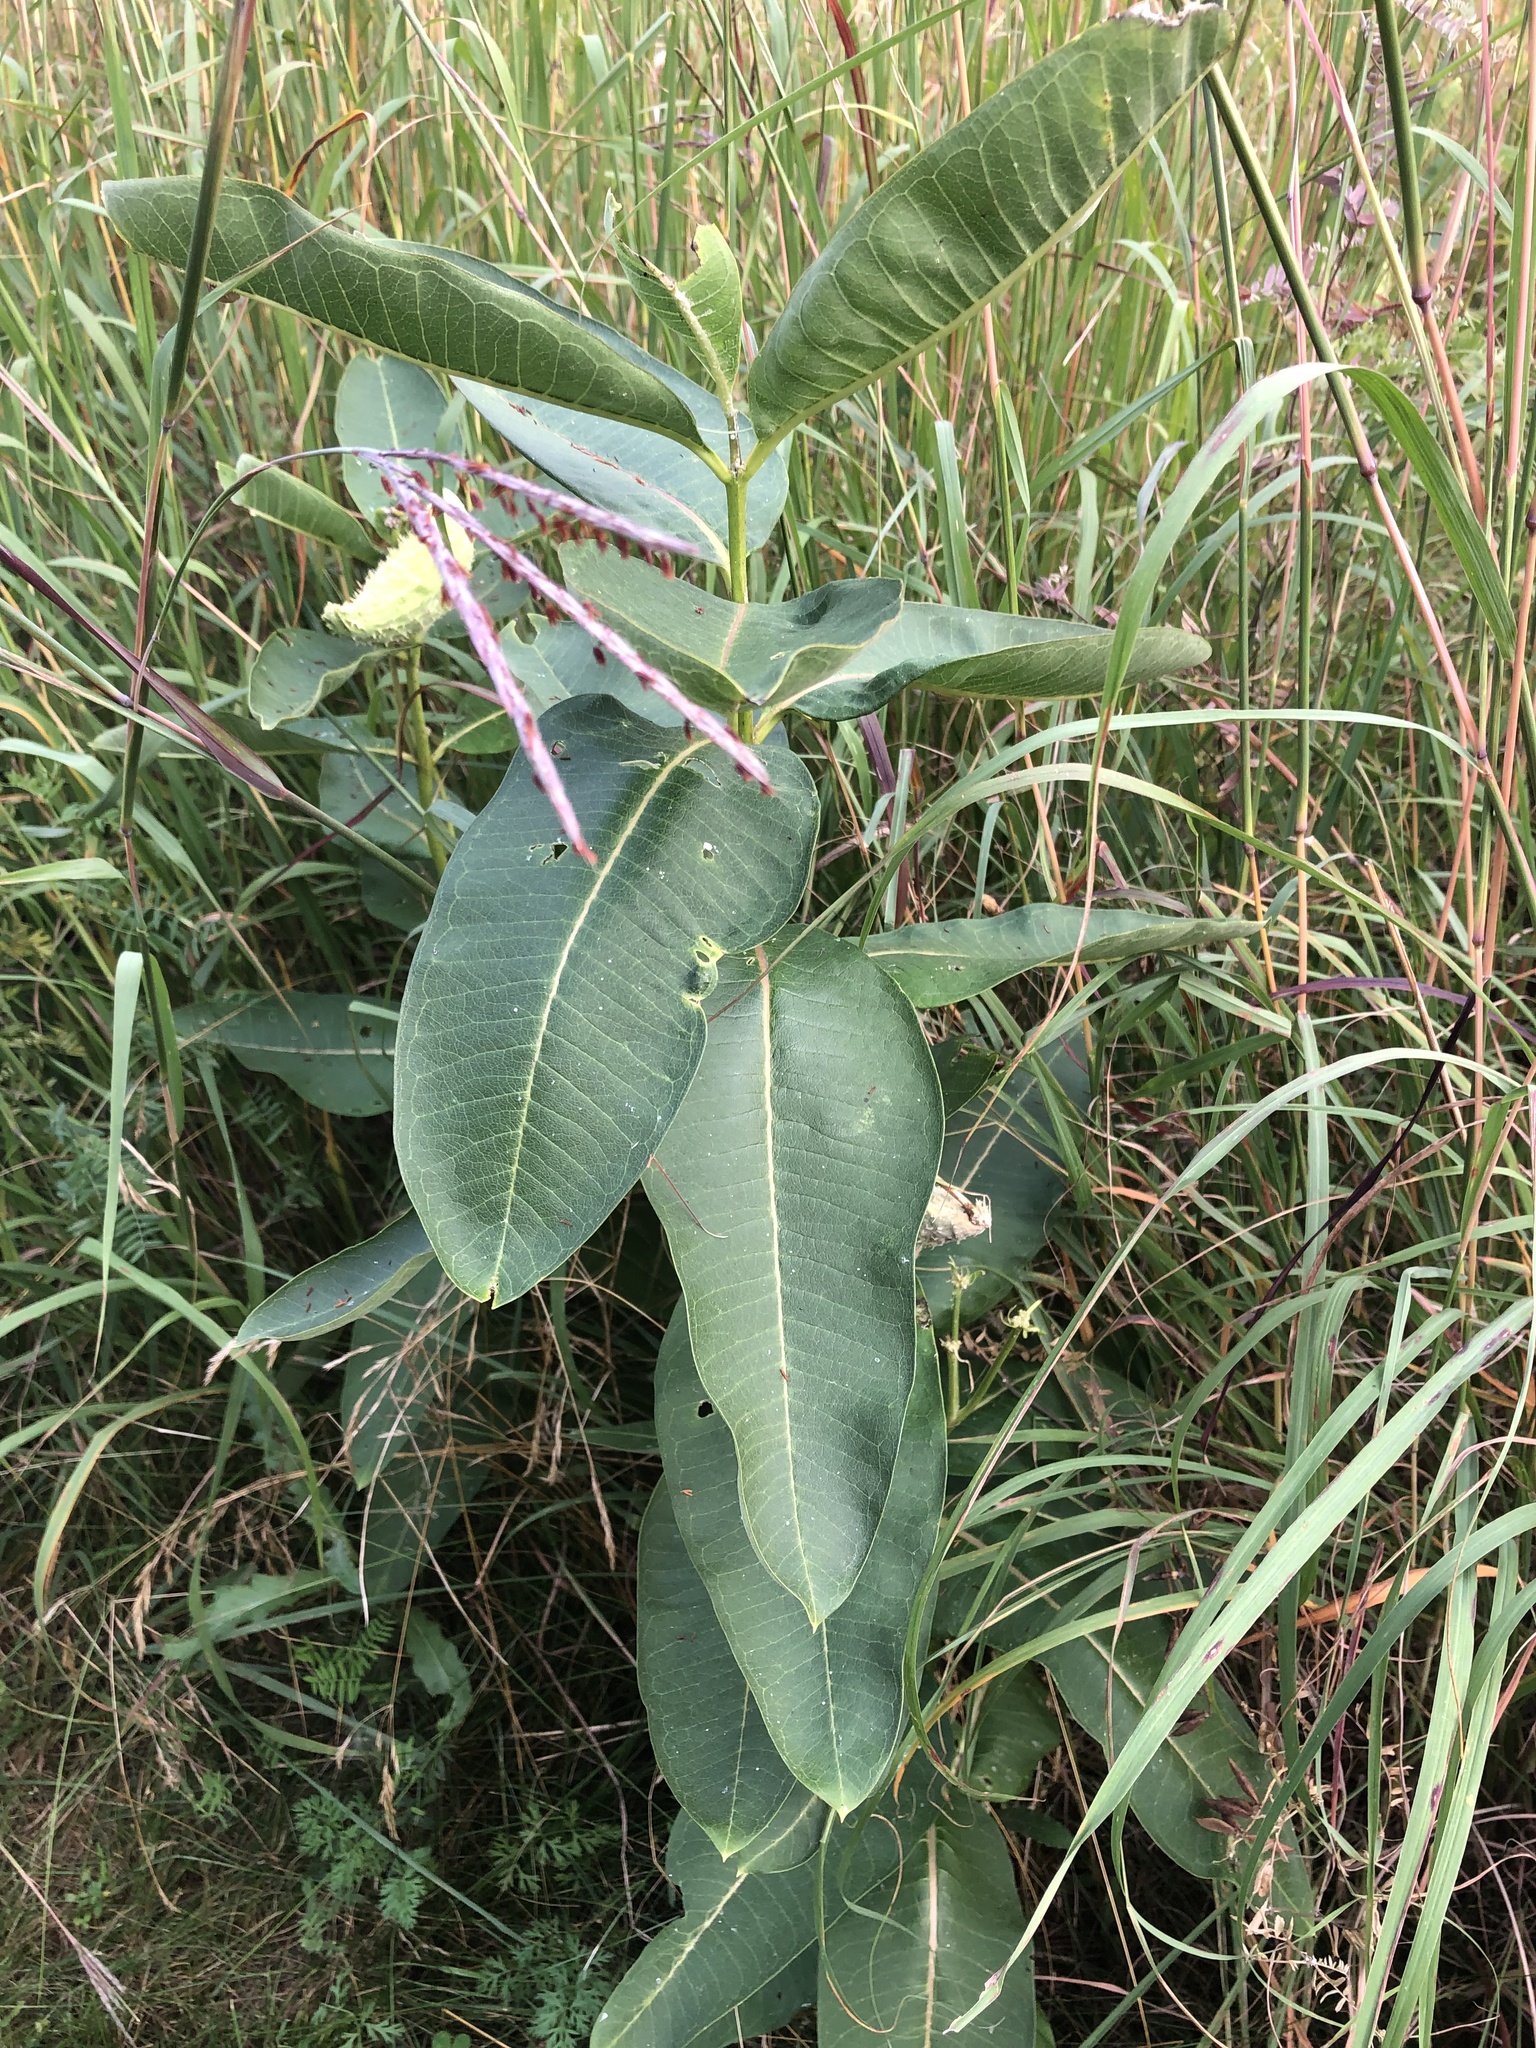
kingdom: Plantae
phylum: Tracheophyta
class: Magnoliopsida
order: Gentianales
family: Apocynaceae
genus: Asclepias
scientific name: Asclepias syriaca
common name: Common milkweed
